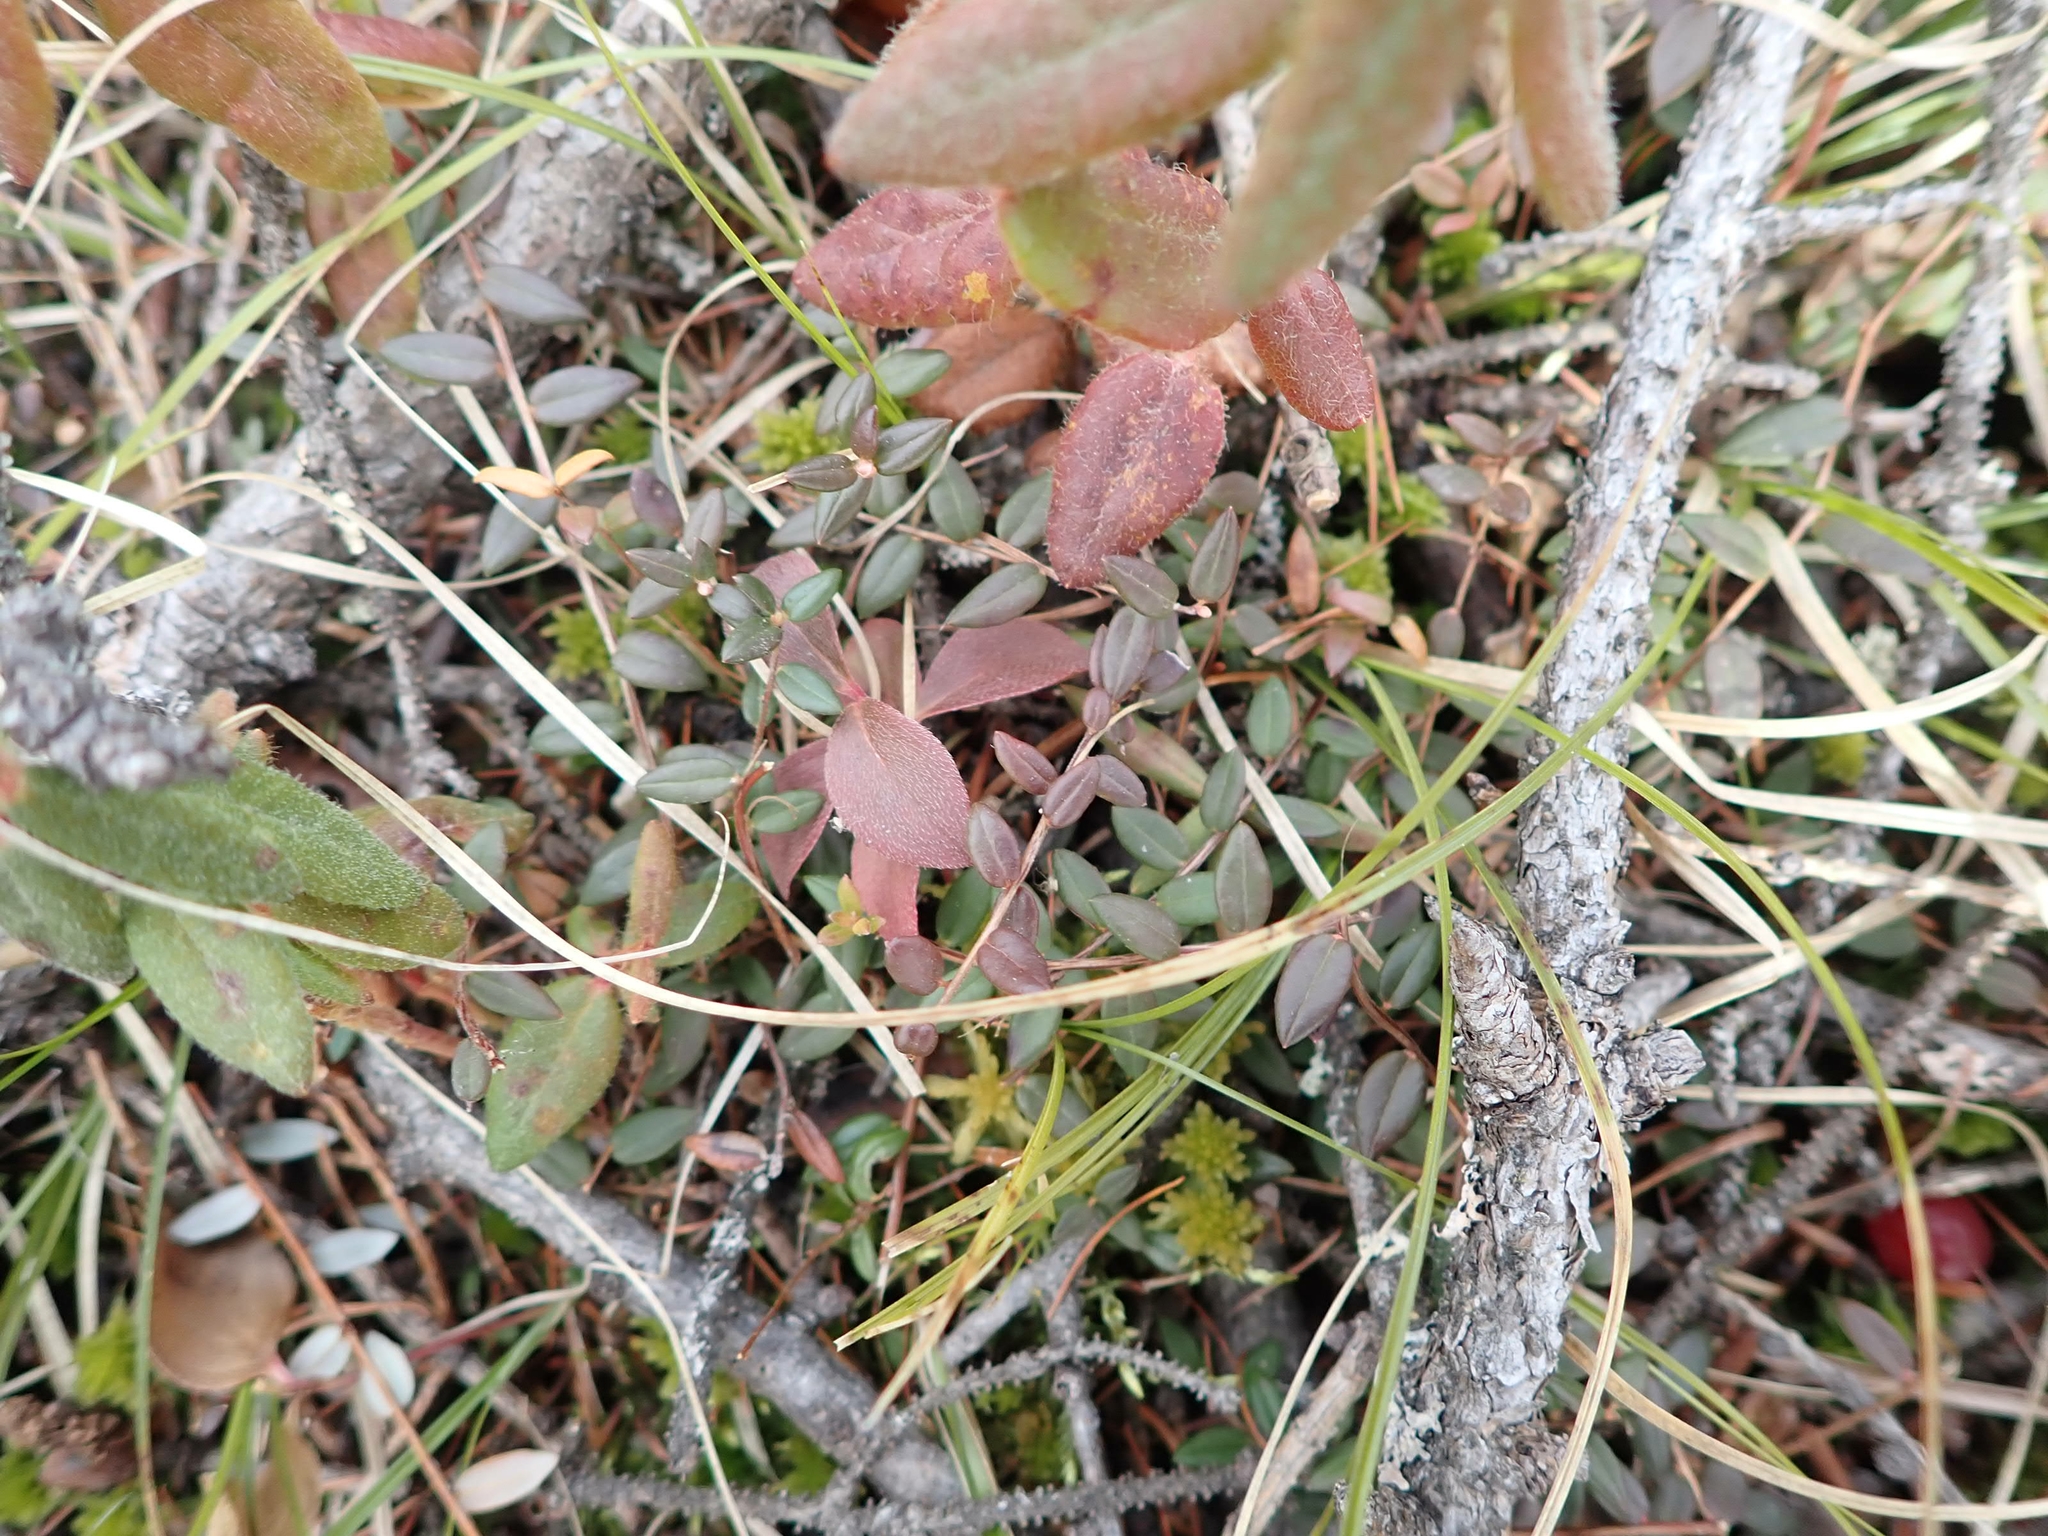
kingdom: Plantae
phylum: Tracheophyta
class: Magnoliopsida
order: Ericales
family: Ericaceae
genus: Vaccinium
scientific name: Vaccinium oxycoccos
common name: Cranberry
